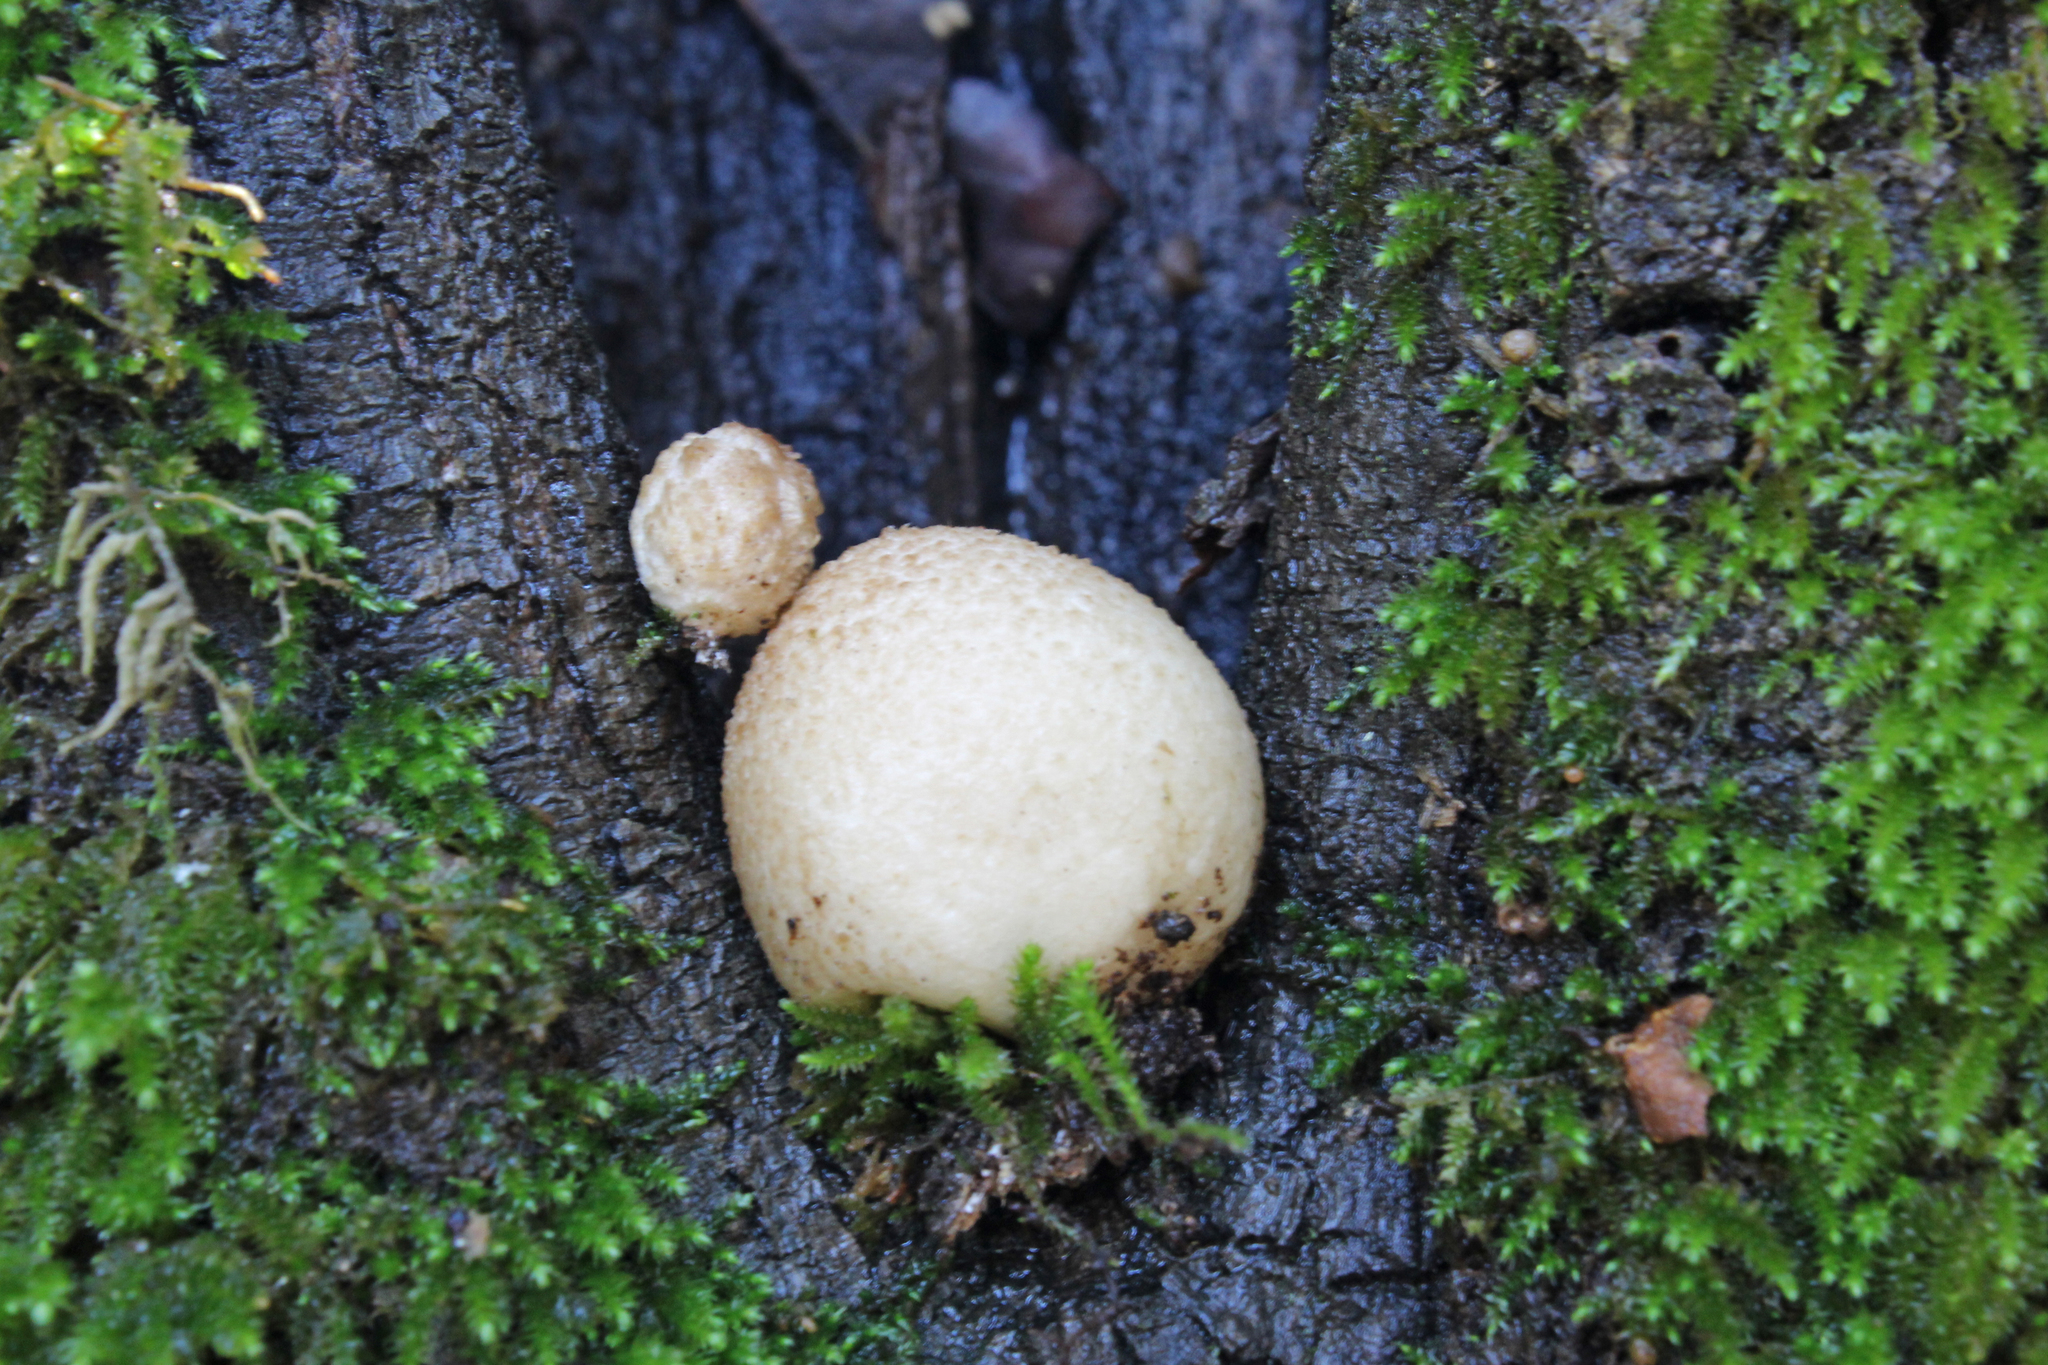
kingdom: Fungi
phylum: Basidiomycota
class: Agaricomycetes
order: Agaricales
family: Lycoperdaceae
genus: Bryoperdon
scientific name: Bryoperdon acuminatum
